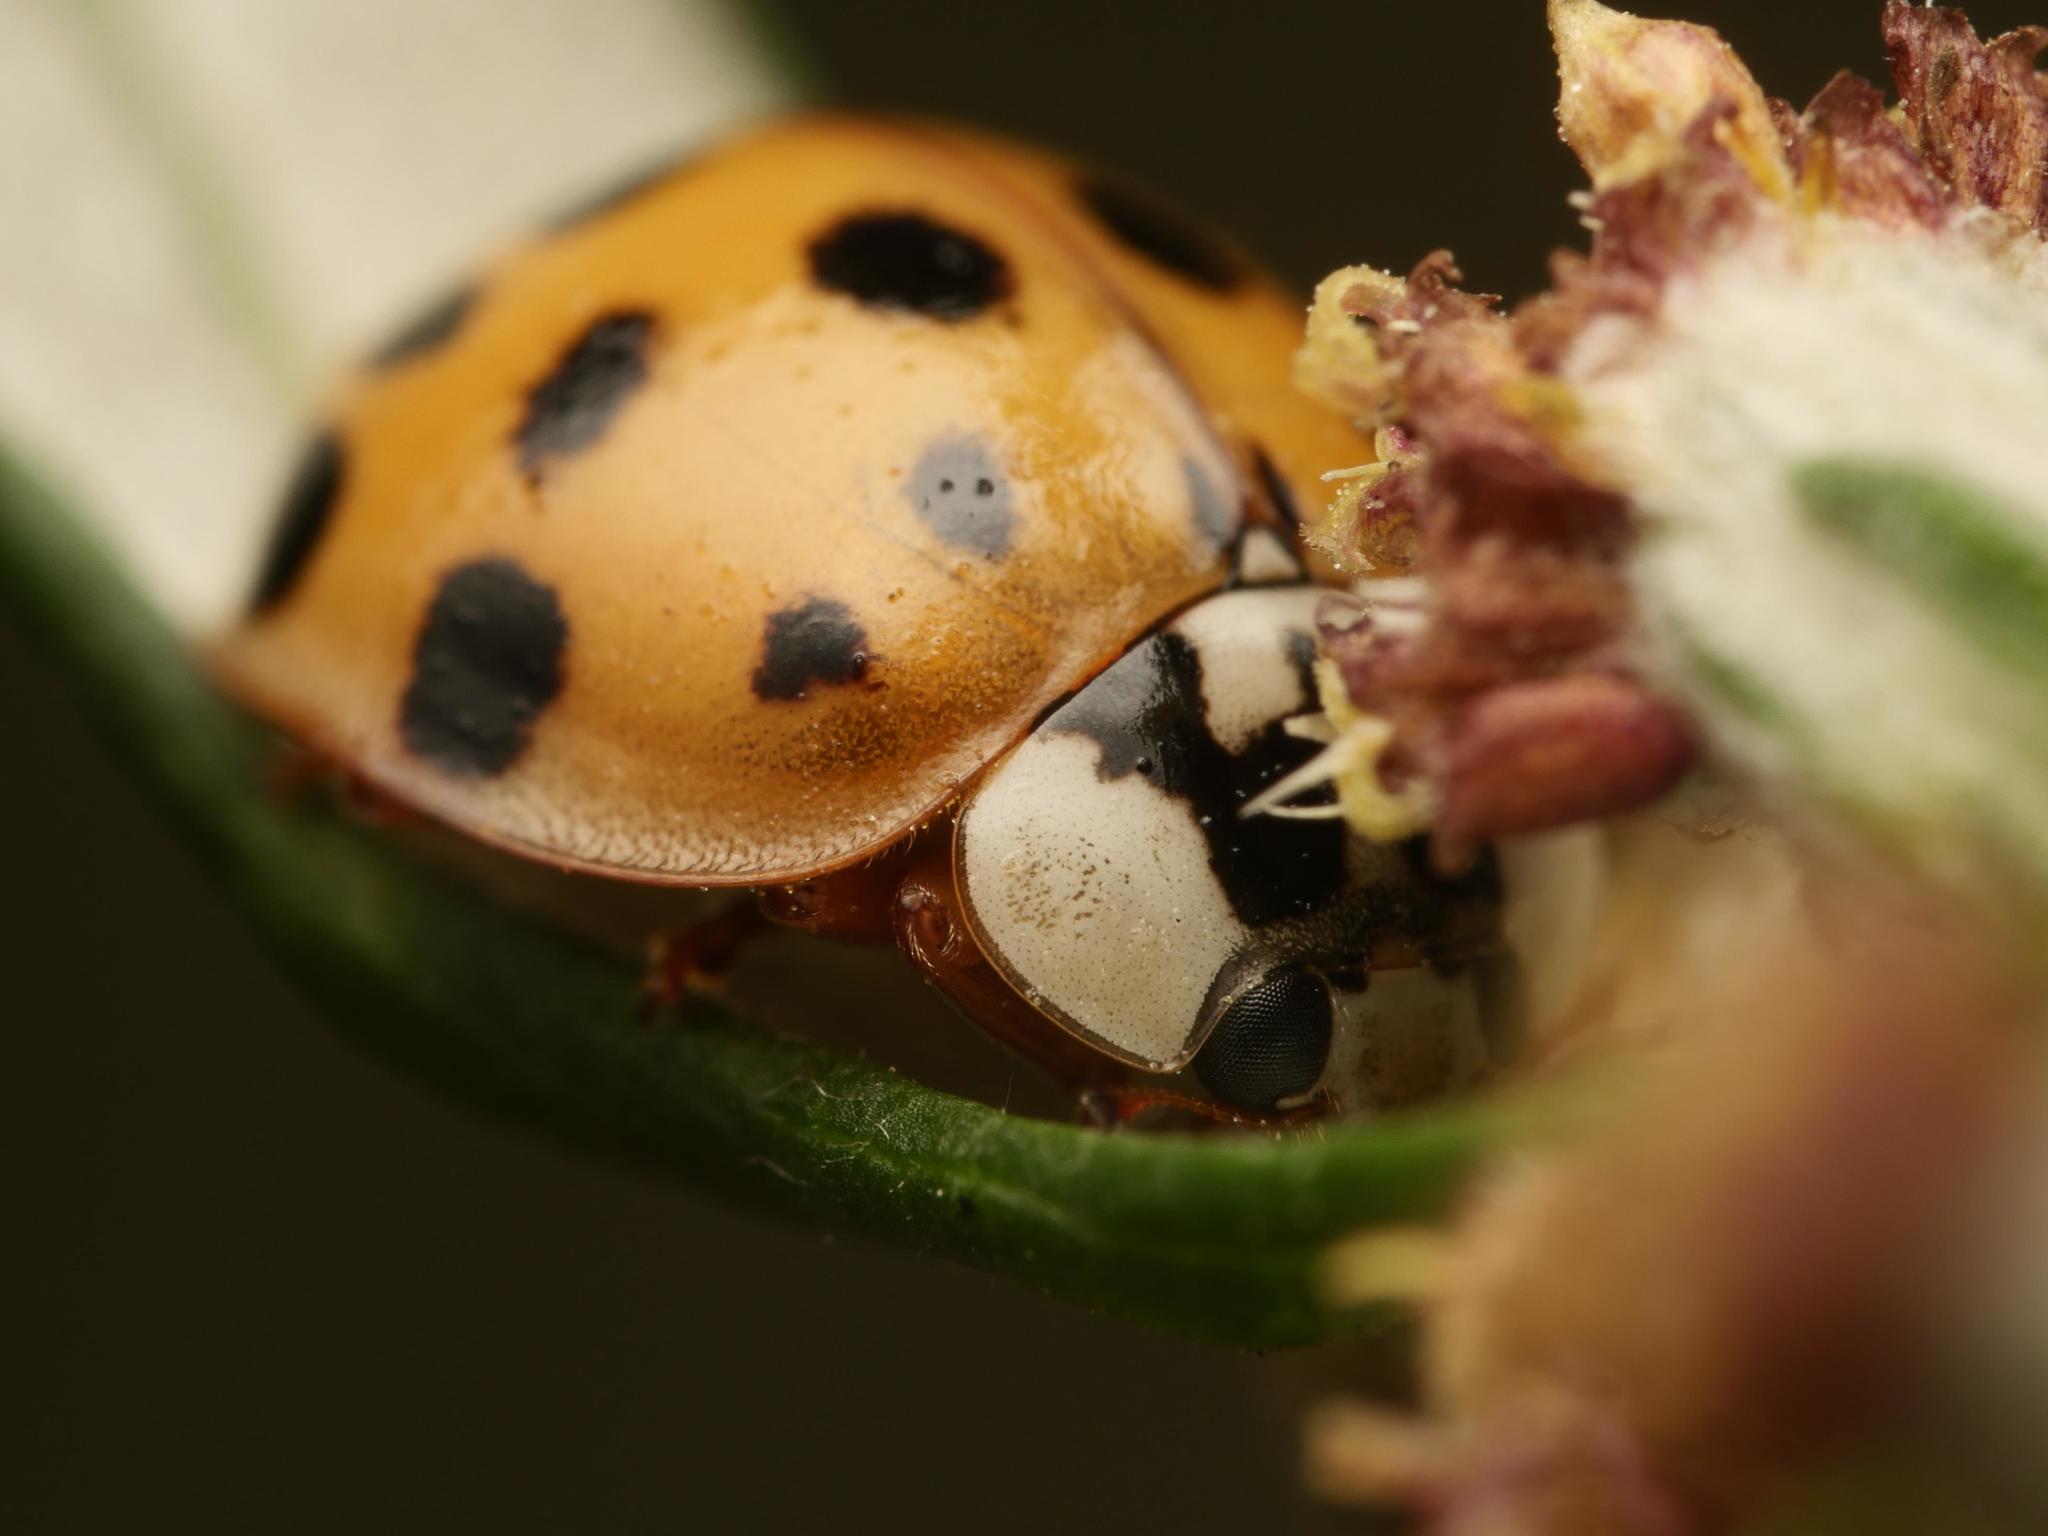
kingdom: Animalia
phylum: Arthropoda
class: Insecta
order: Coleoptera
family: Coccinellidae
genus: Harmonia
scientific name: Harmonia axyridis
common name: Harlequin ladybird
